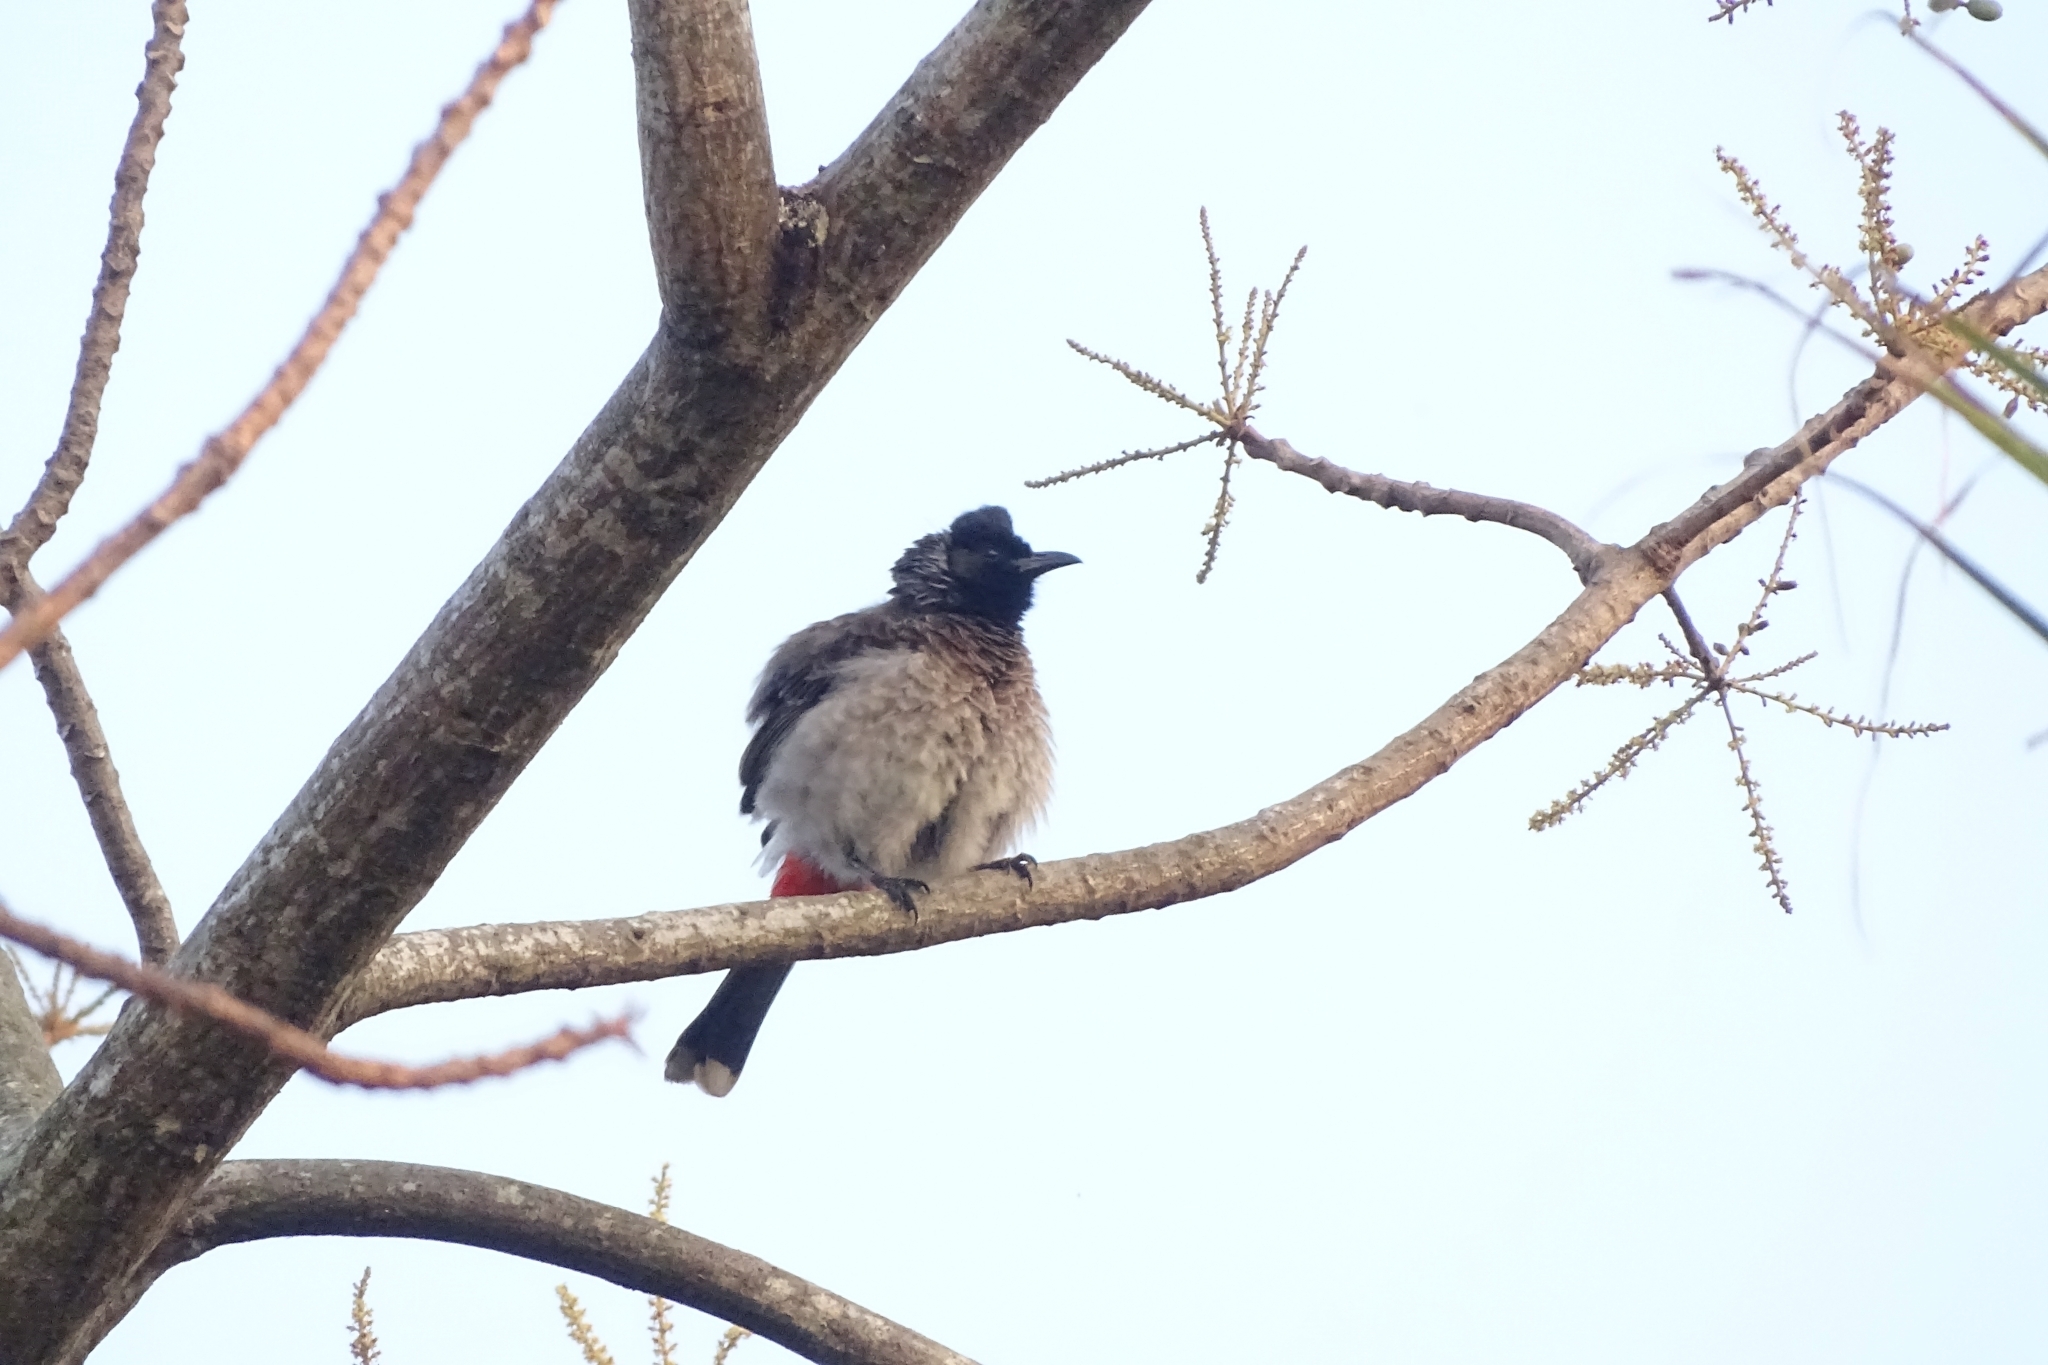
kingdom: Animalia
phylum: Chordata
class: Aves
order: Passeriformes
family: Pycnonotidae
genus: Pycnonotus
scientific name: Pycnonotus cafer
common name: Red-vented bulbul
